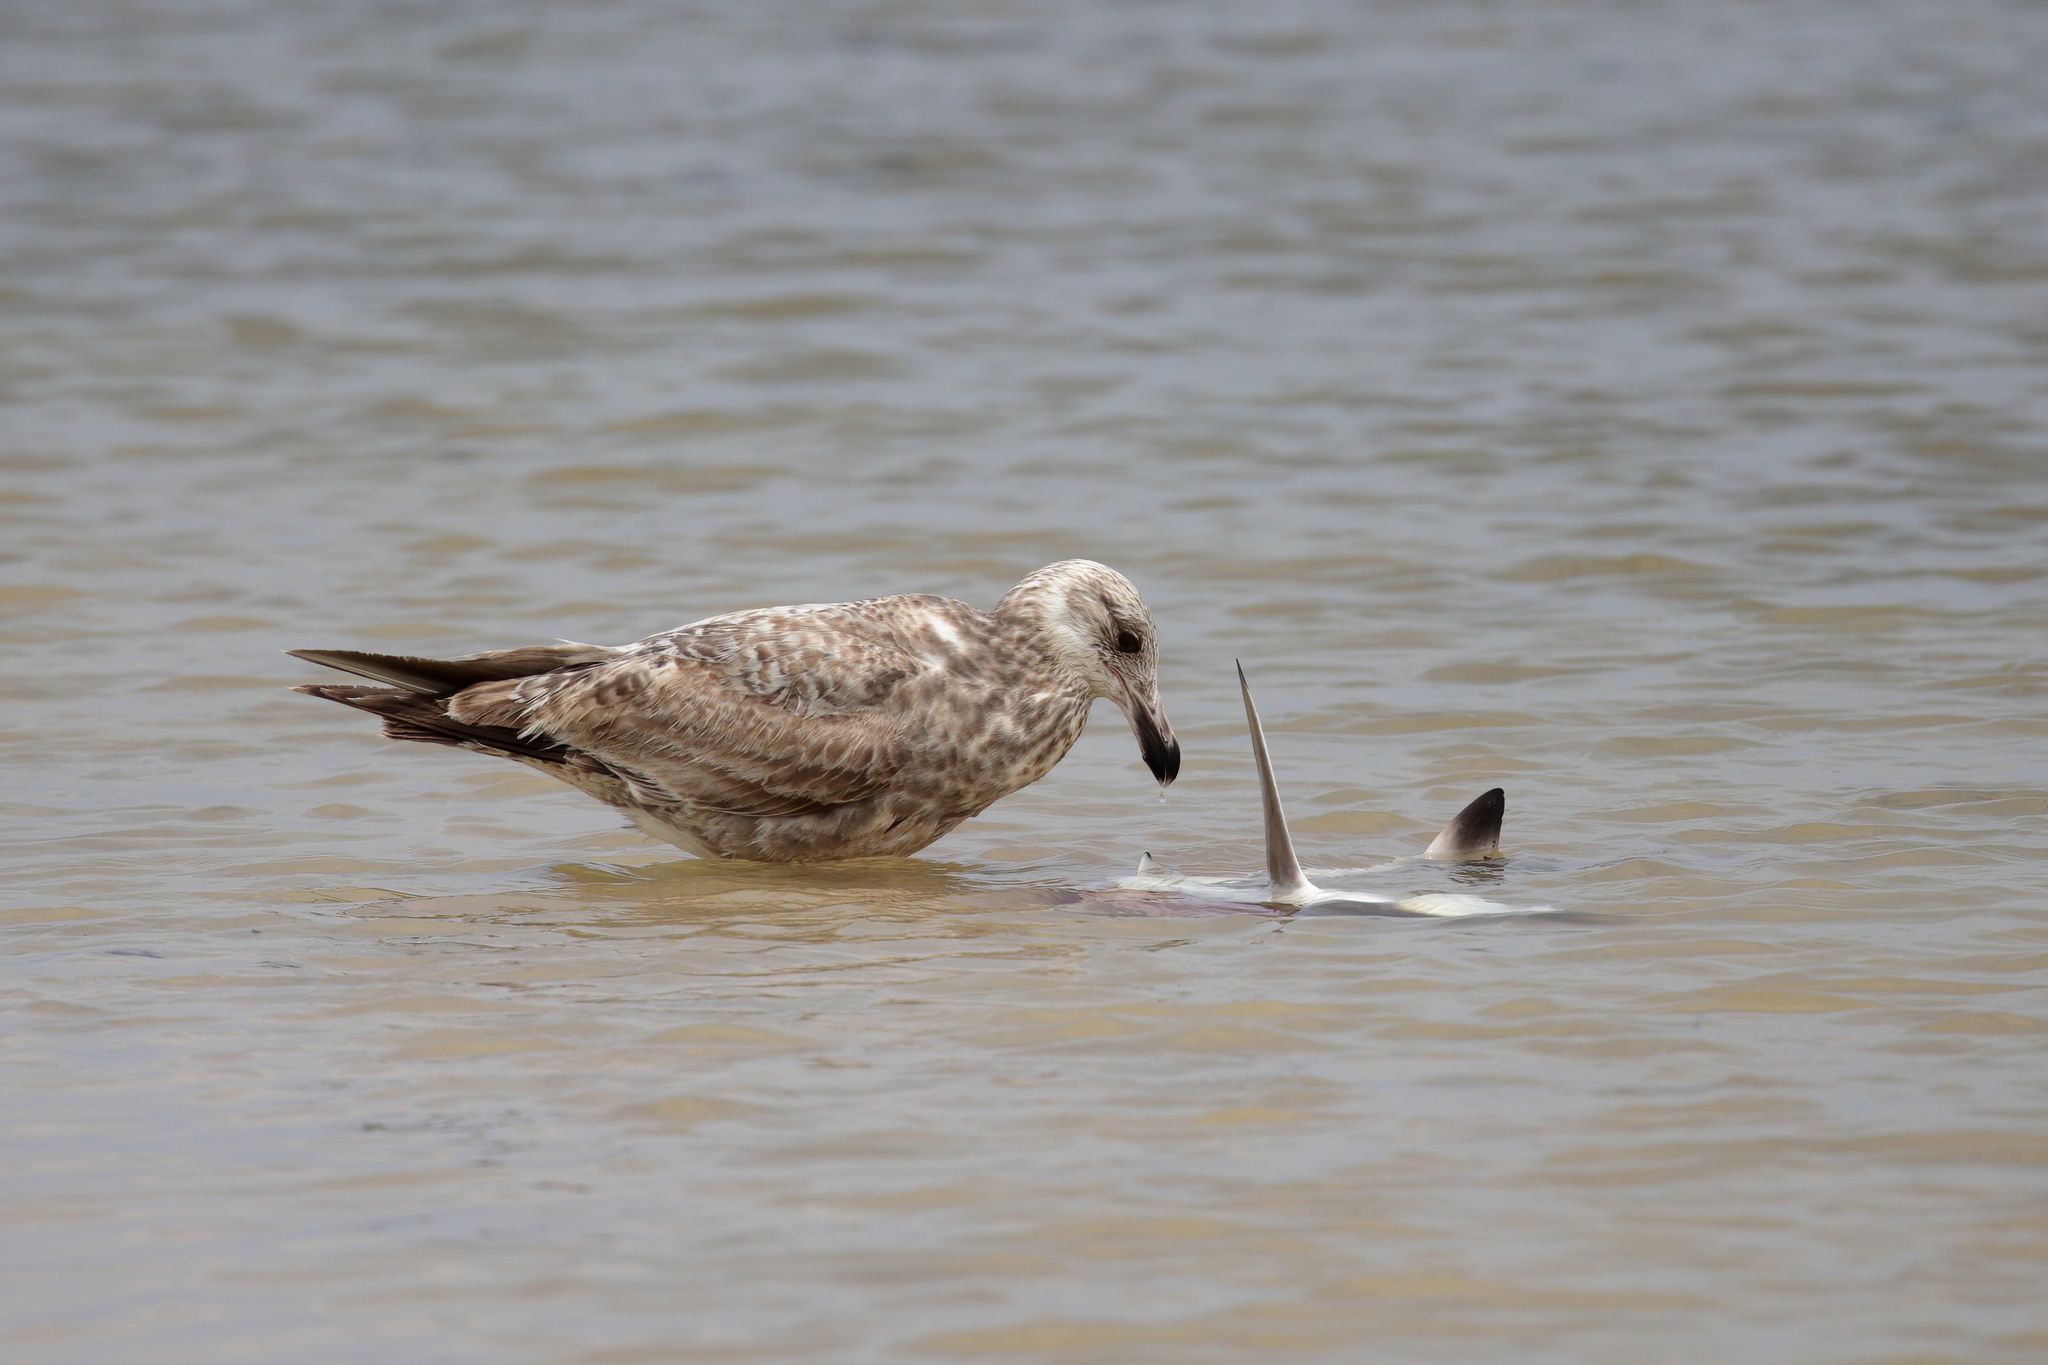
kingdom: Animalia
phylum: Chordata
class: Aves
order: Charadriiformes
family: Laridae
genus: Larus
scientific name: Larus argentatus
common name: Herring gull
